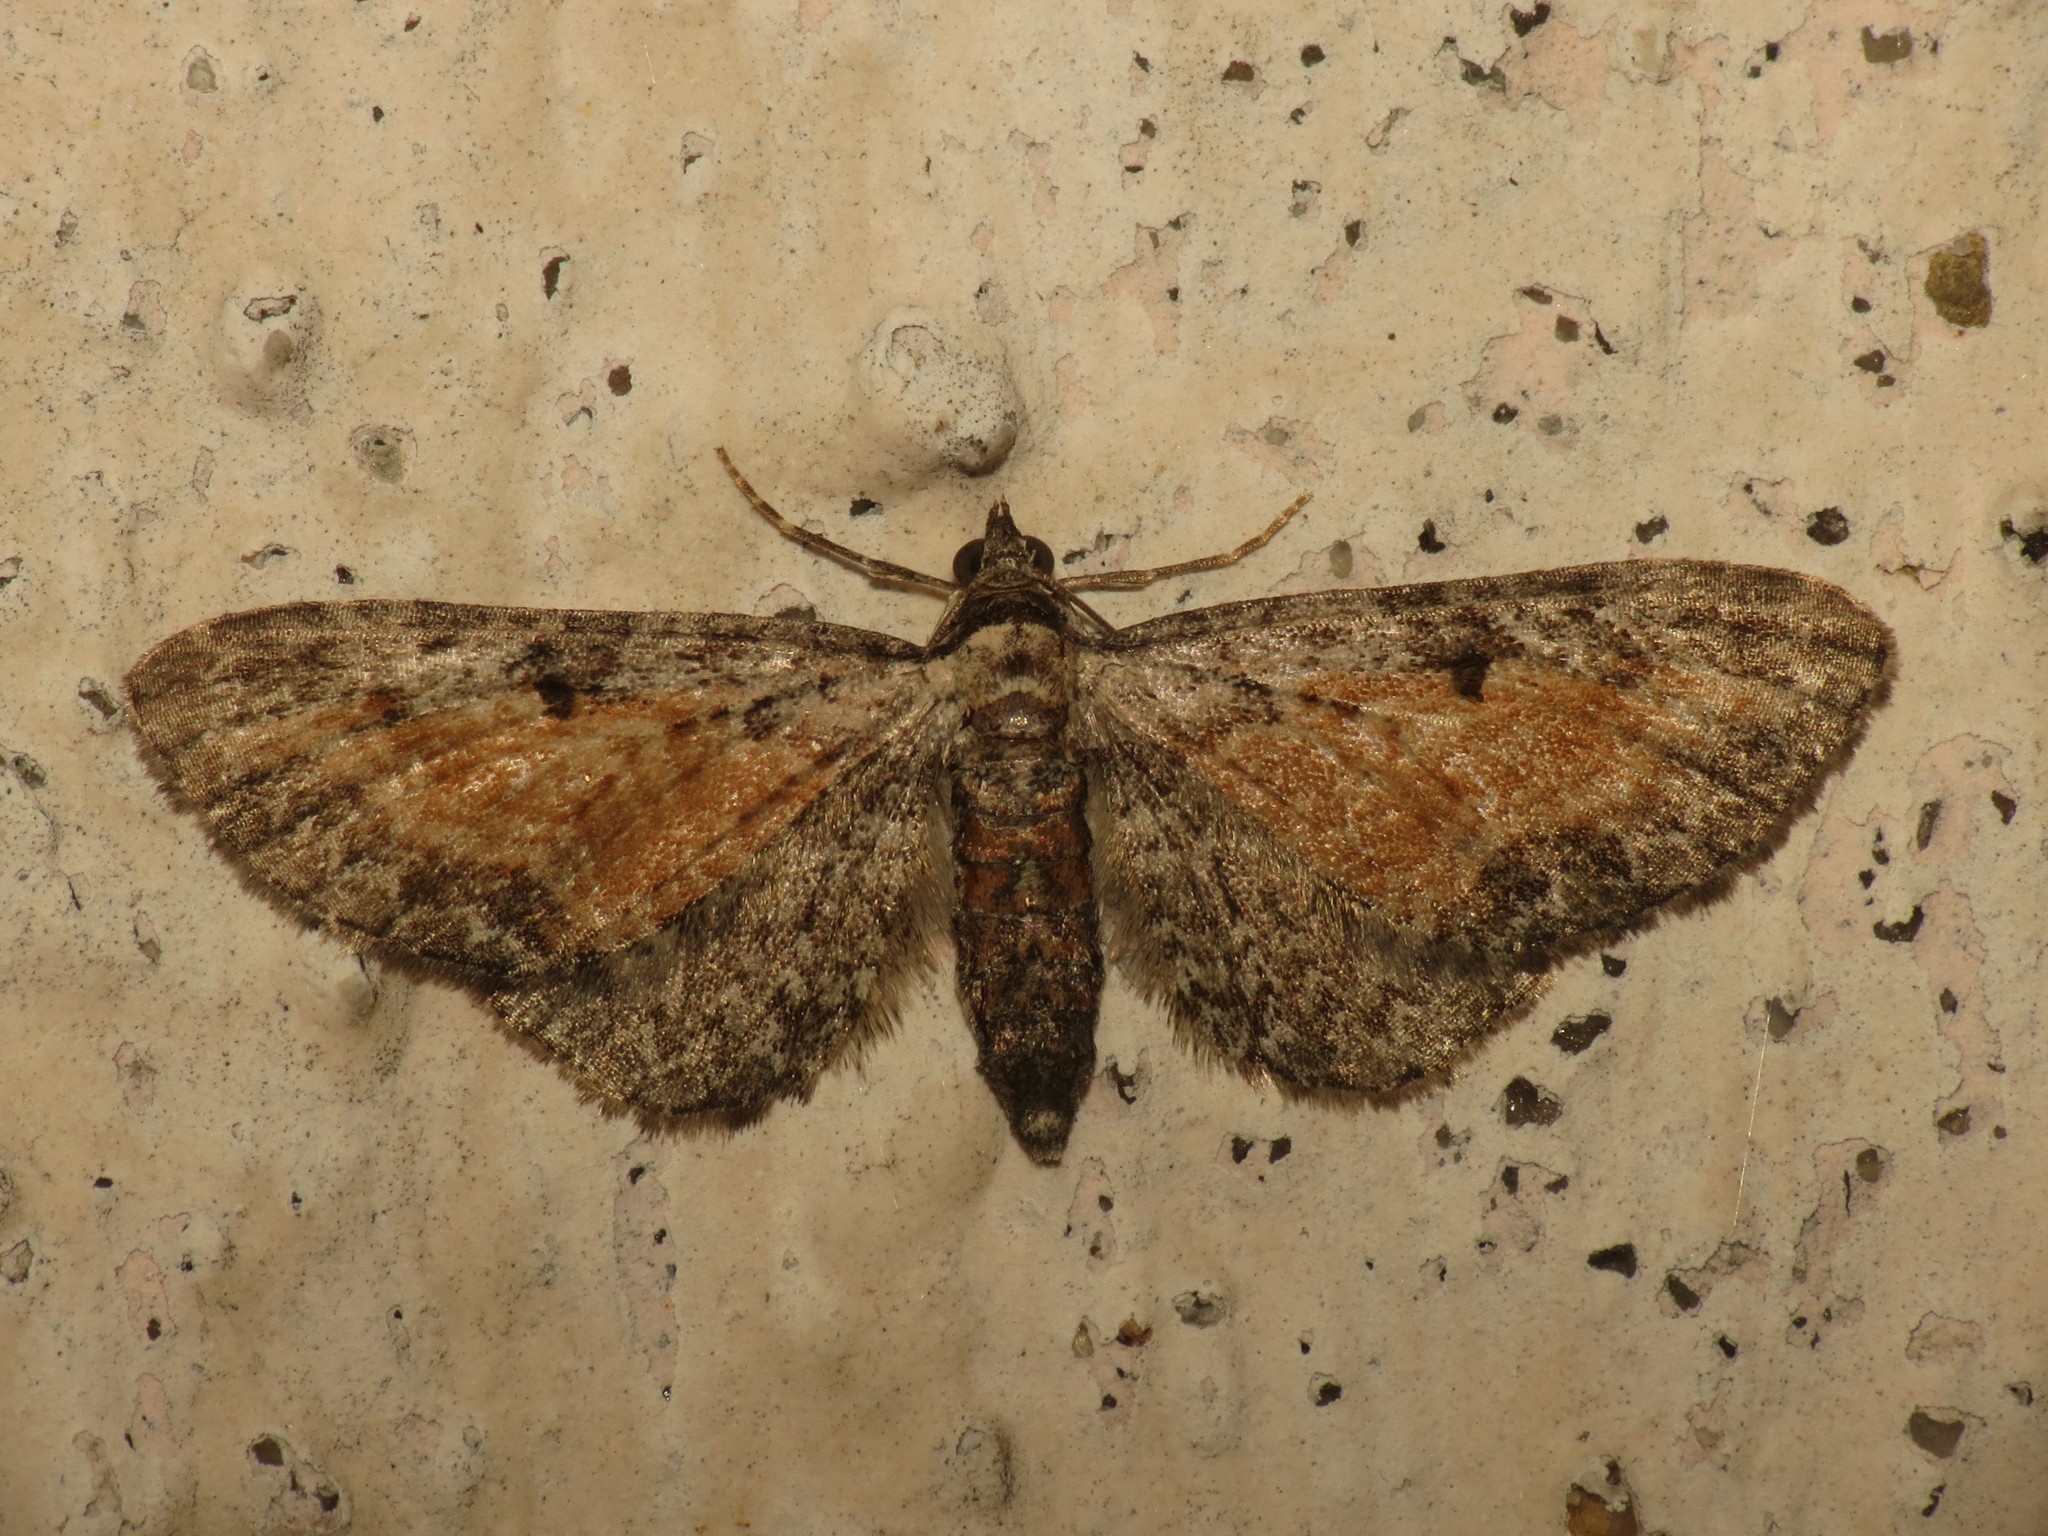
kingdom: Animalia
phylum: Arthropoda
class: Insecta
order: Lepidoptera
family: Geometridae
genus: Eupithecia
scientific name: Eupithecia icterata
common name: Tawny speckled pug
